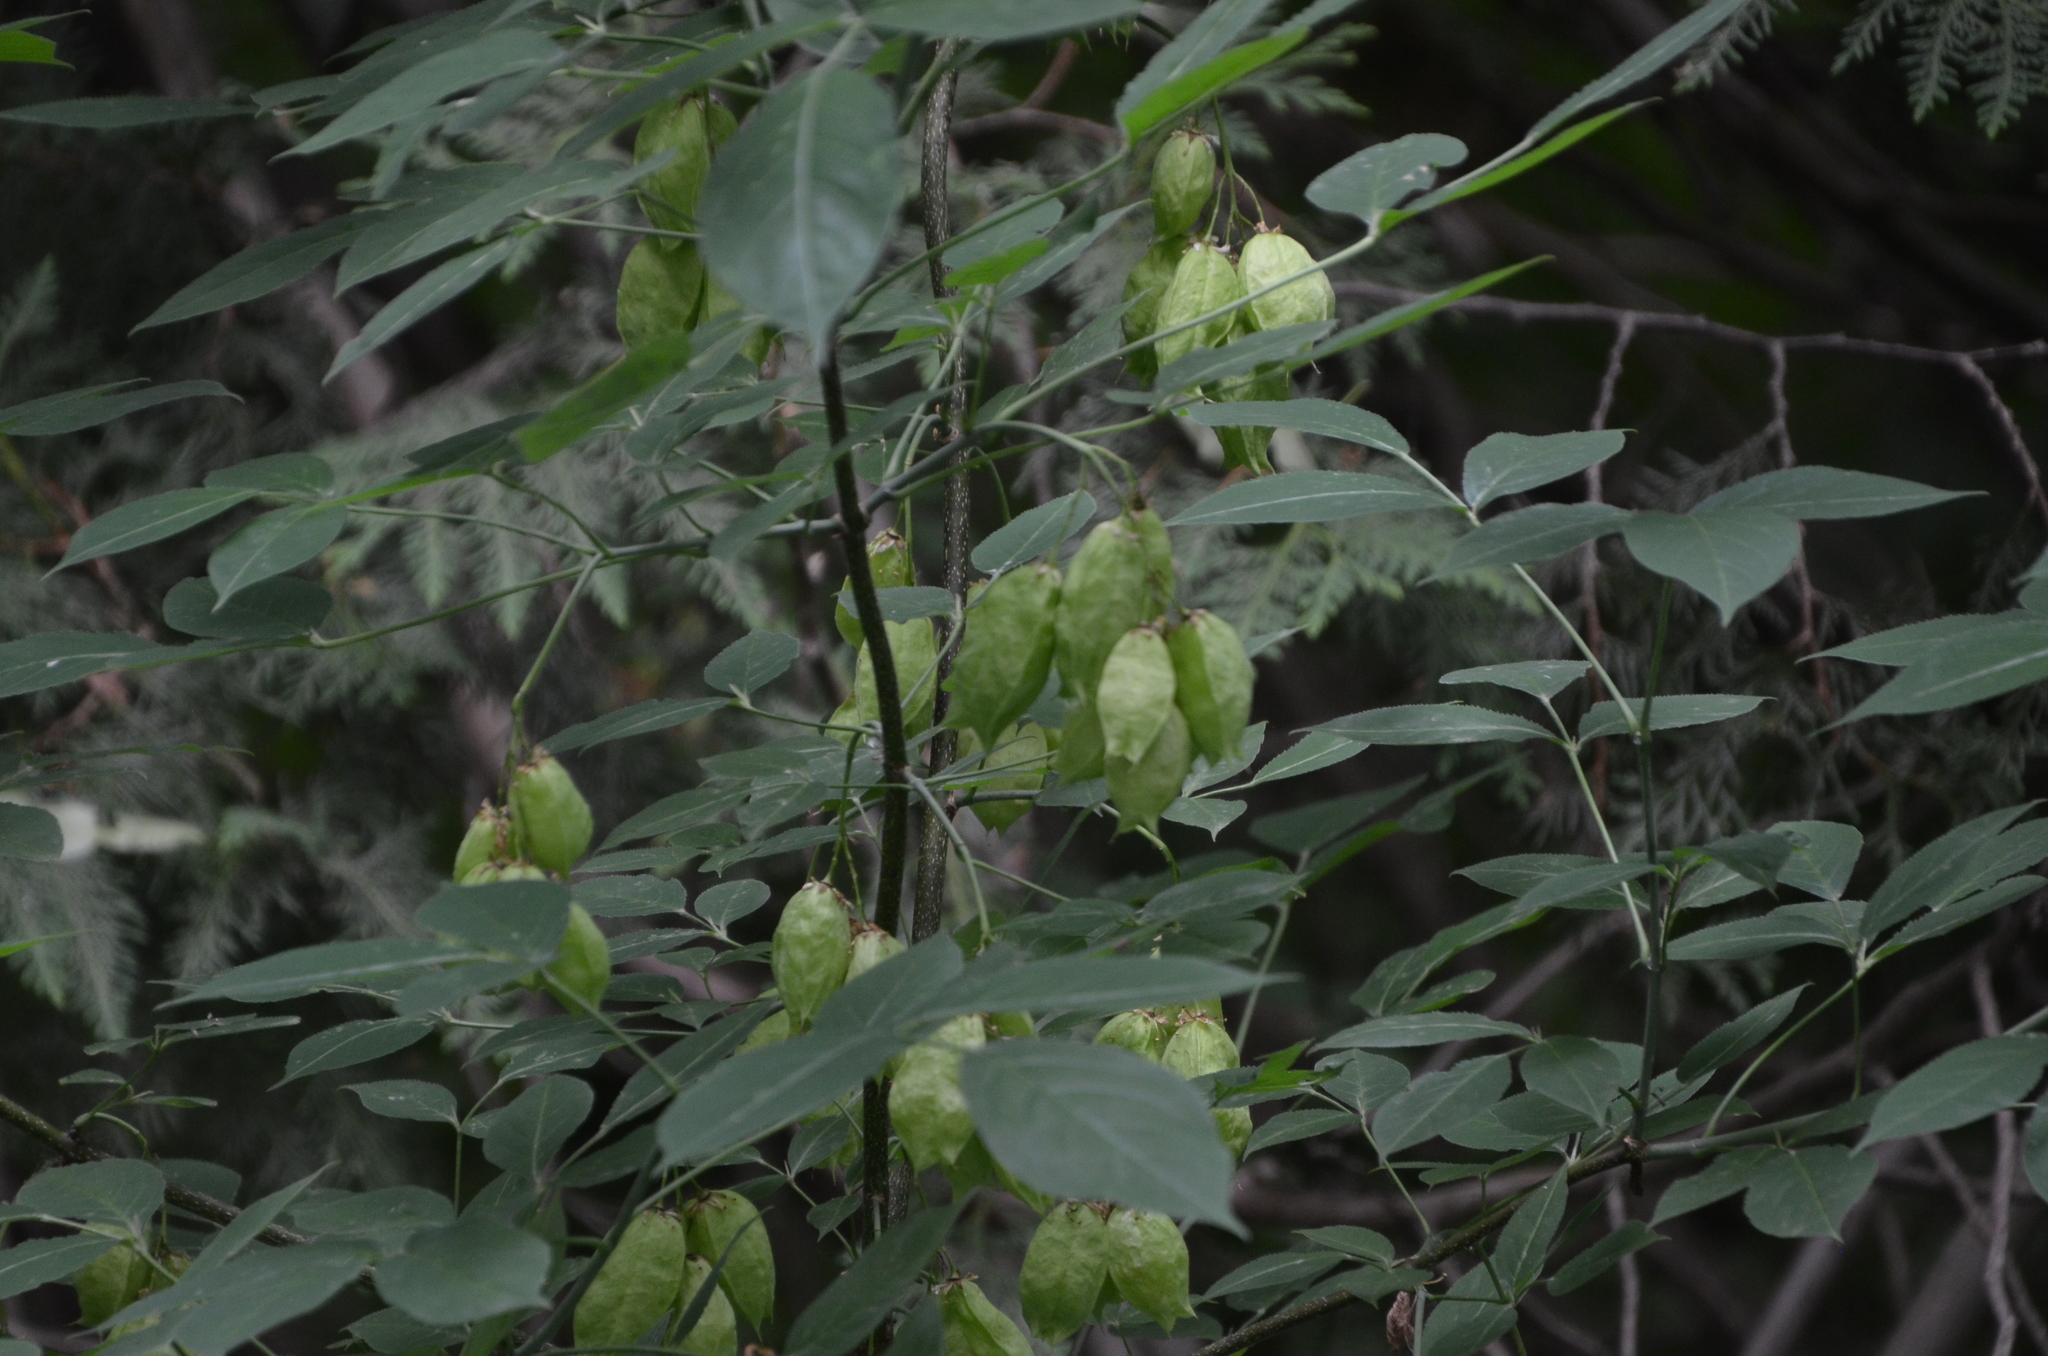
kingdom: Plantae
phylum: Tracheophyta
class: Magnoliopsida
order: Crossosomatales
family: Staphyleaceae
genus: Staphylea
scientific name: Staphylea trifolia
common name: American bladdernut
